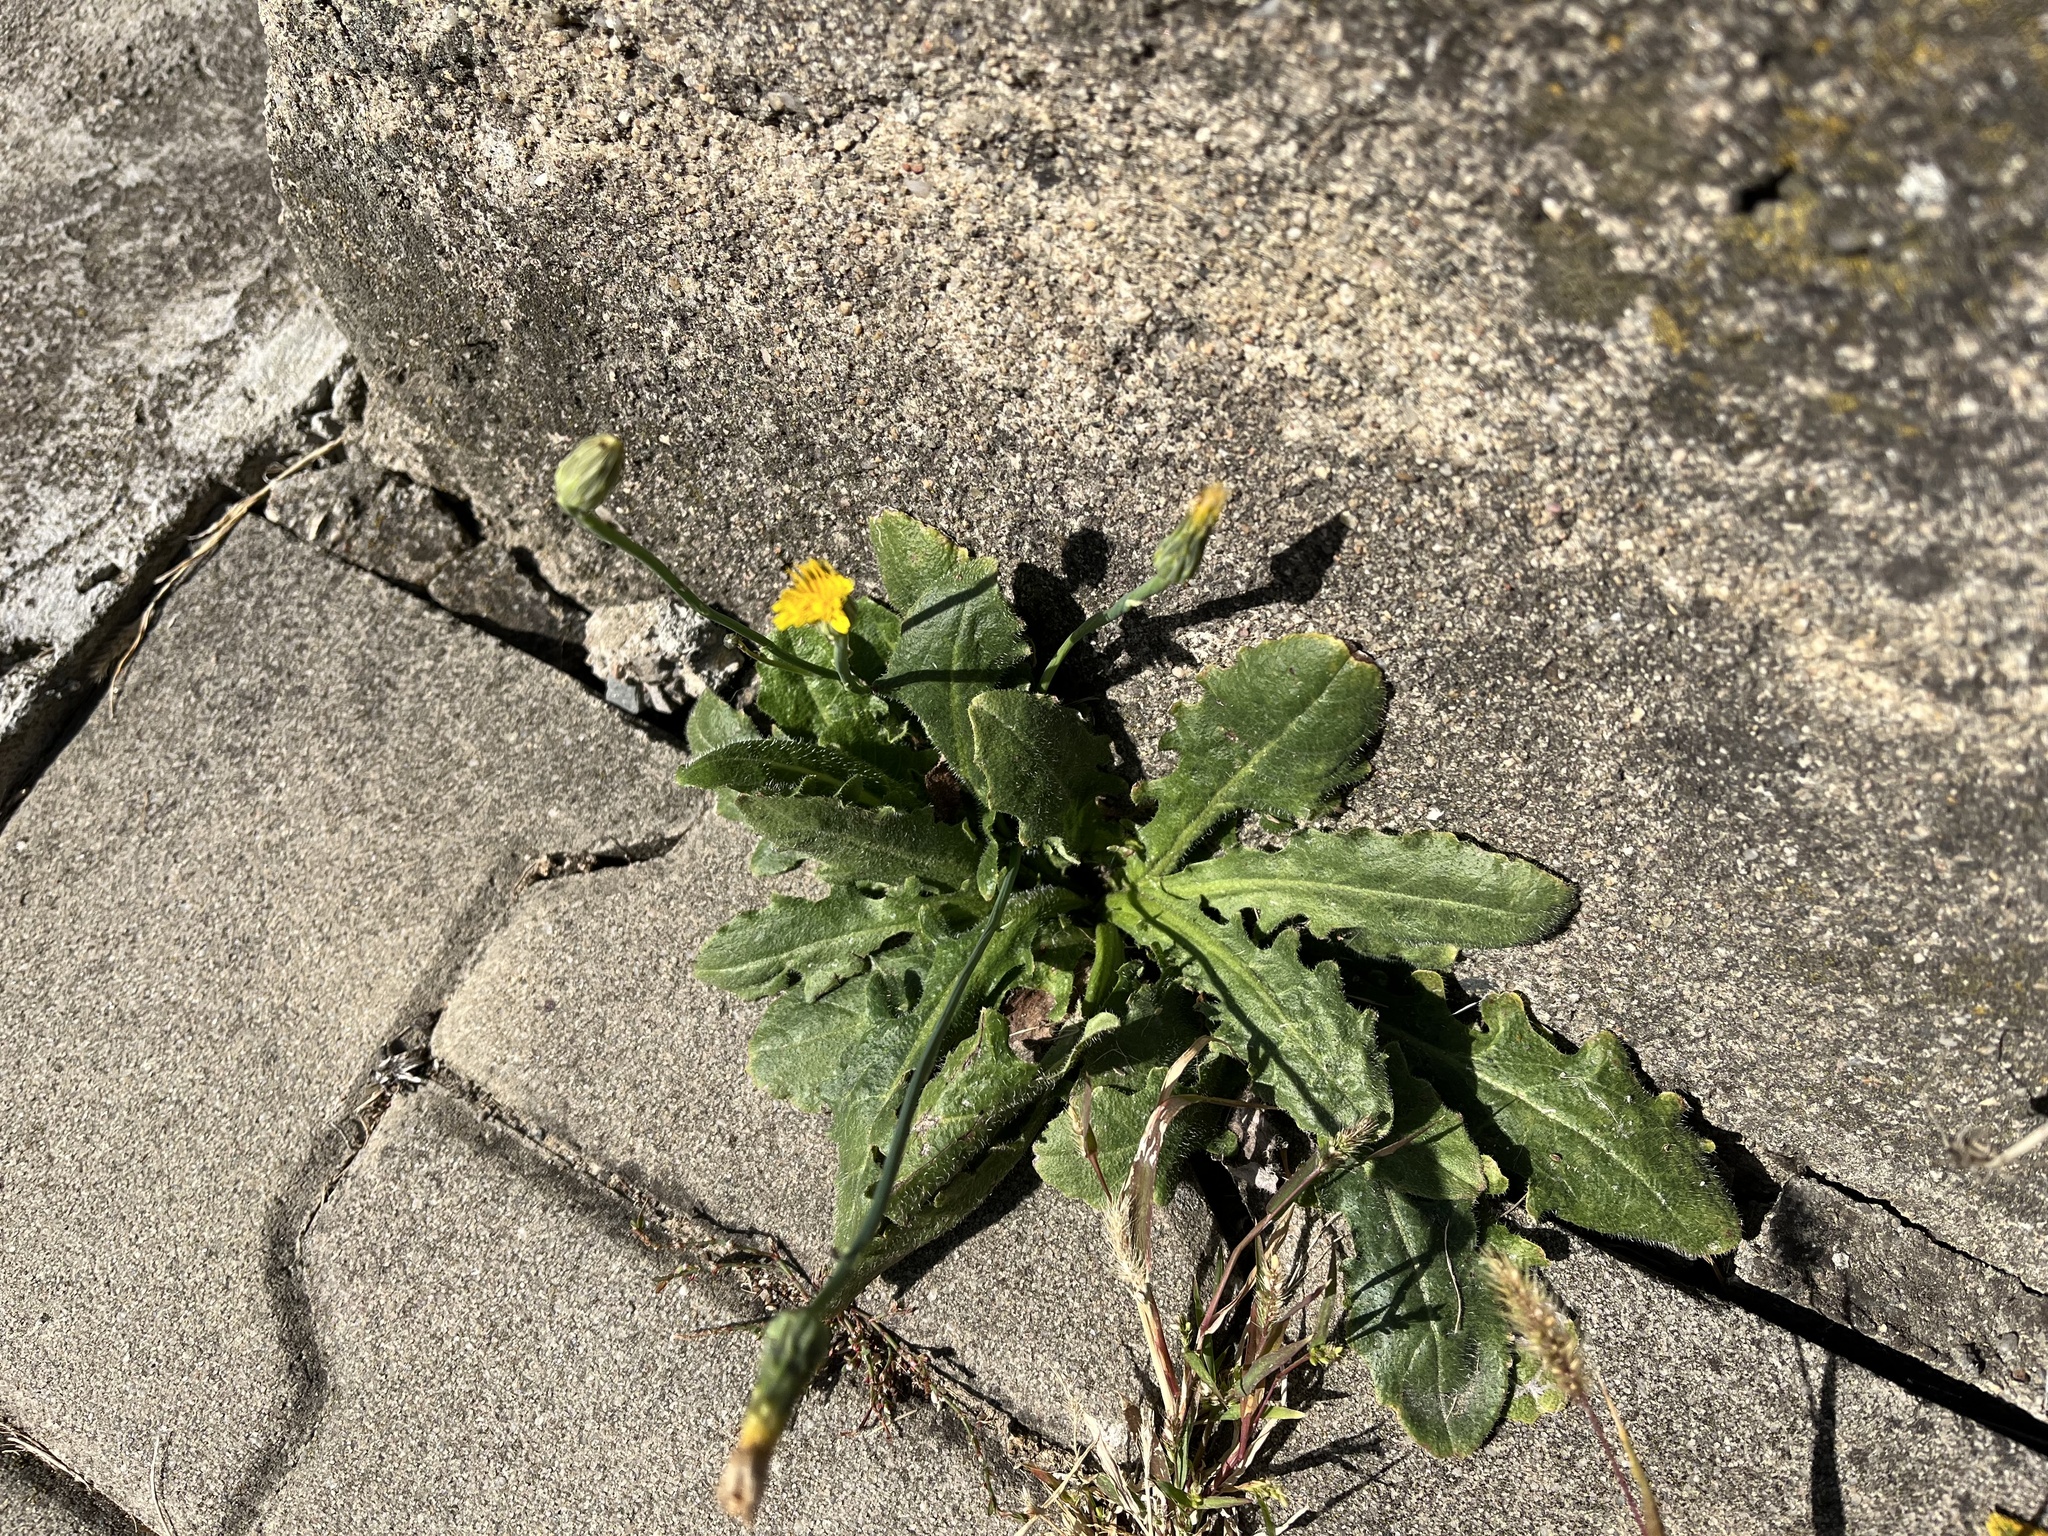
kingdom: Plantae
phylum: Tracheophyta
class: Magnoliopsida
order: Asterales
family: Asteraceae
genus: Hypochaeris
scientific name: Hypochaeris radicata
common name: Flatweed
